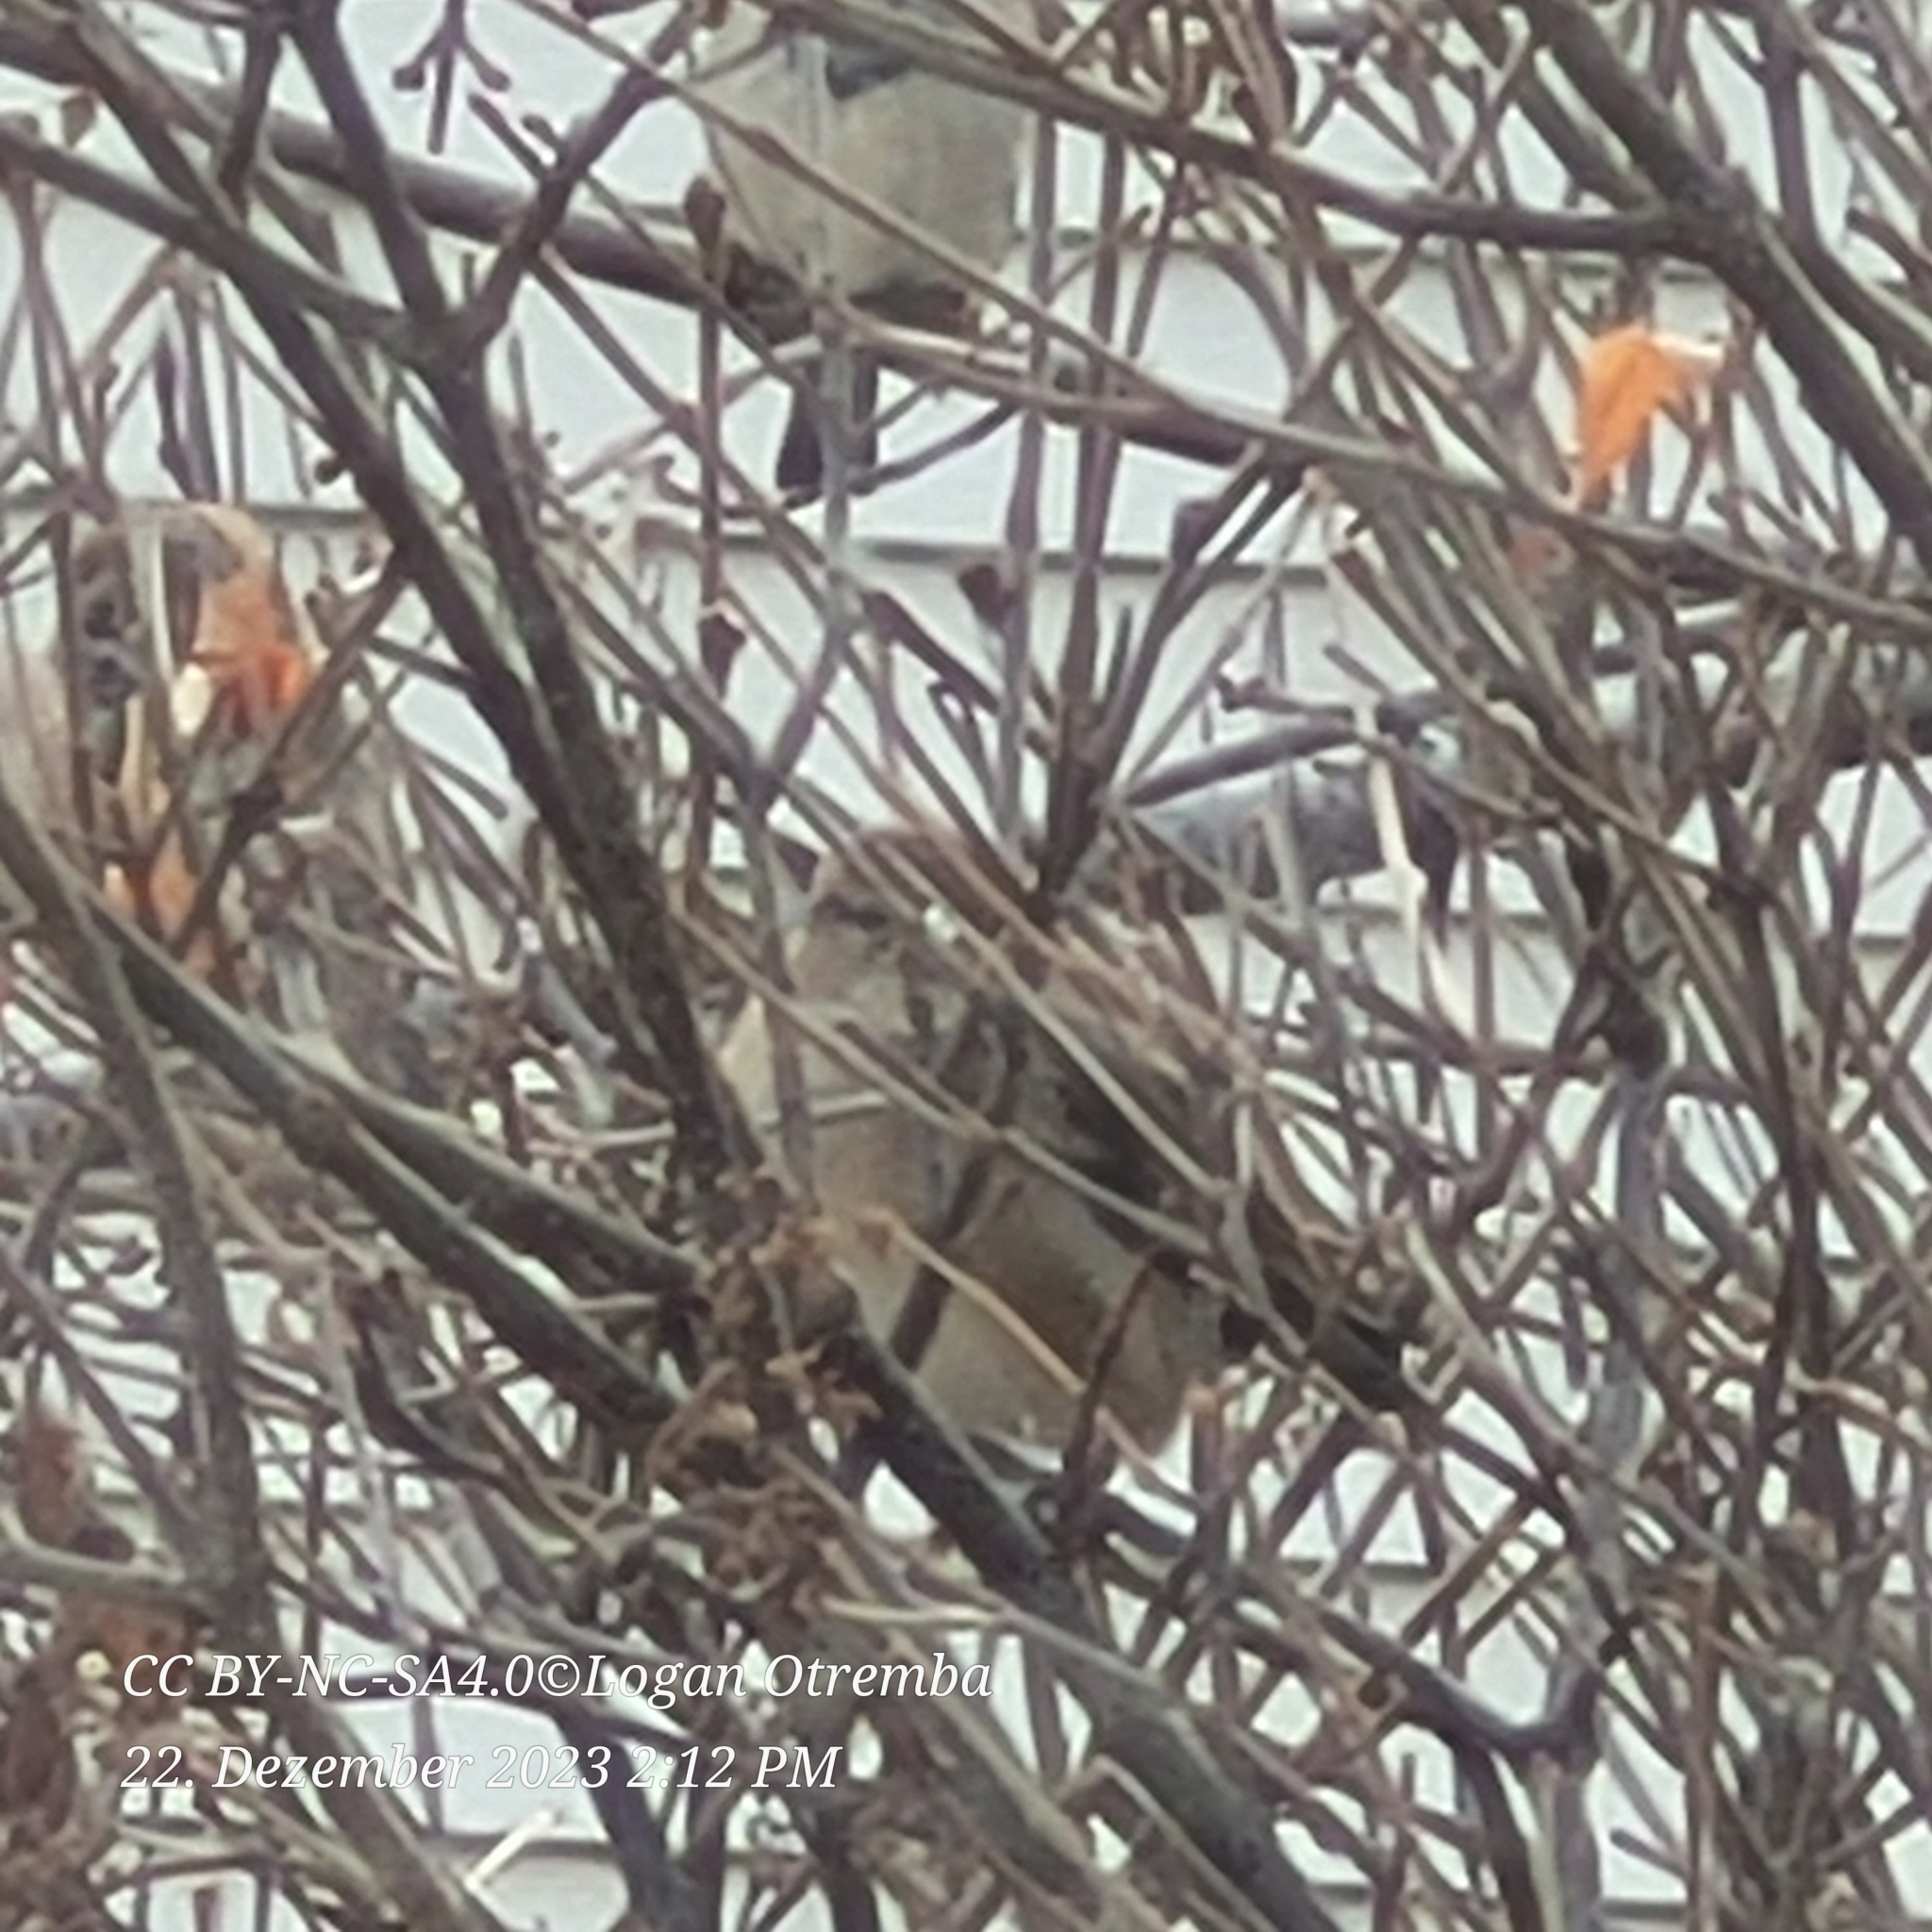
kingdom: Animalia
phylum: Chordata
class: Aves
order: Passeriformes
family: Passeridae
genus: Passer
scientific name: Passer domesticus
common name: House sparrow
